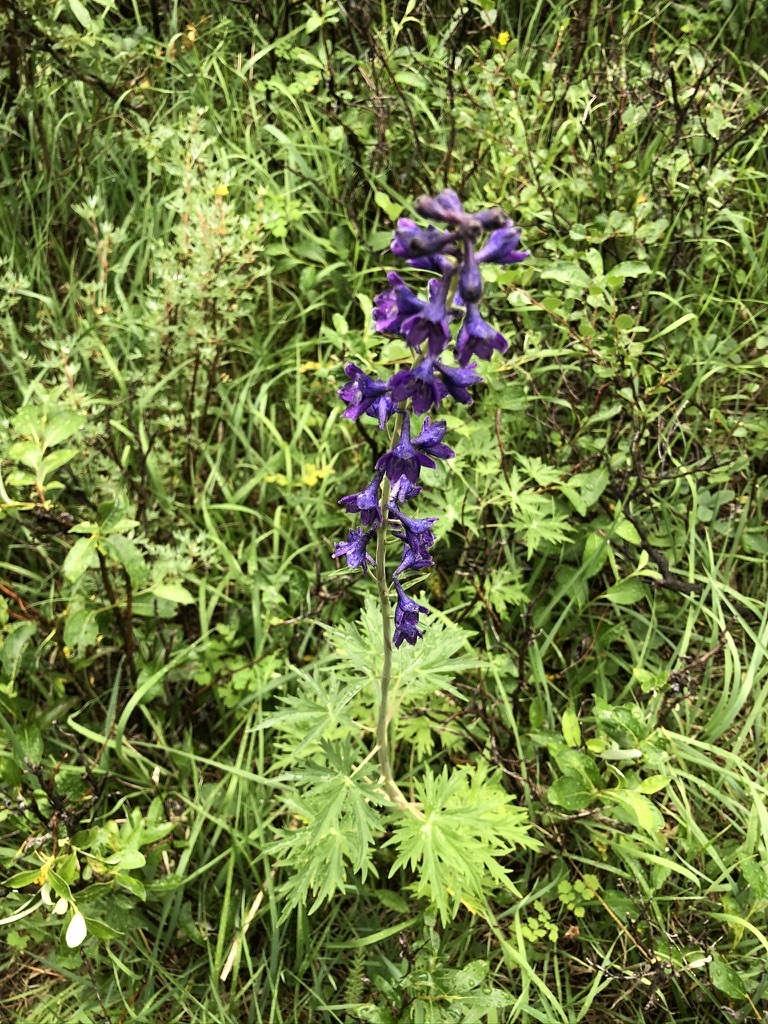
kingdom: Plantae
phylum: Tracheophyta
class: Magnoliopsida
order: Ranunculales
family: Ranunculaceae
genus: Delphinium
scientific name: Delphinium glaucum
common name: Brown's larkspur
